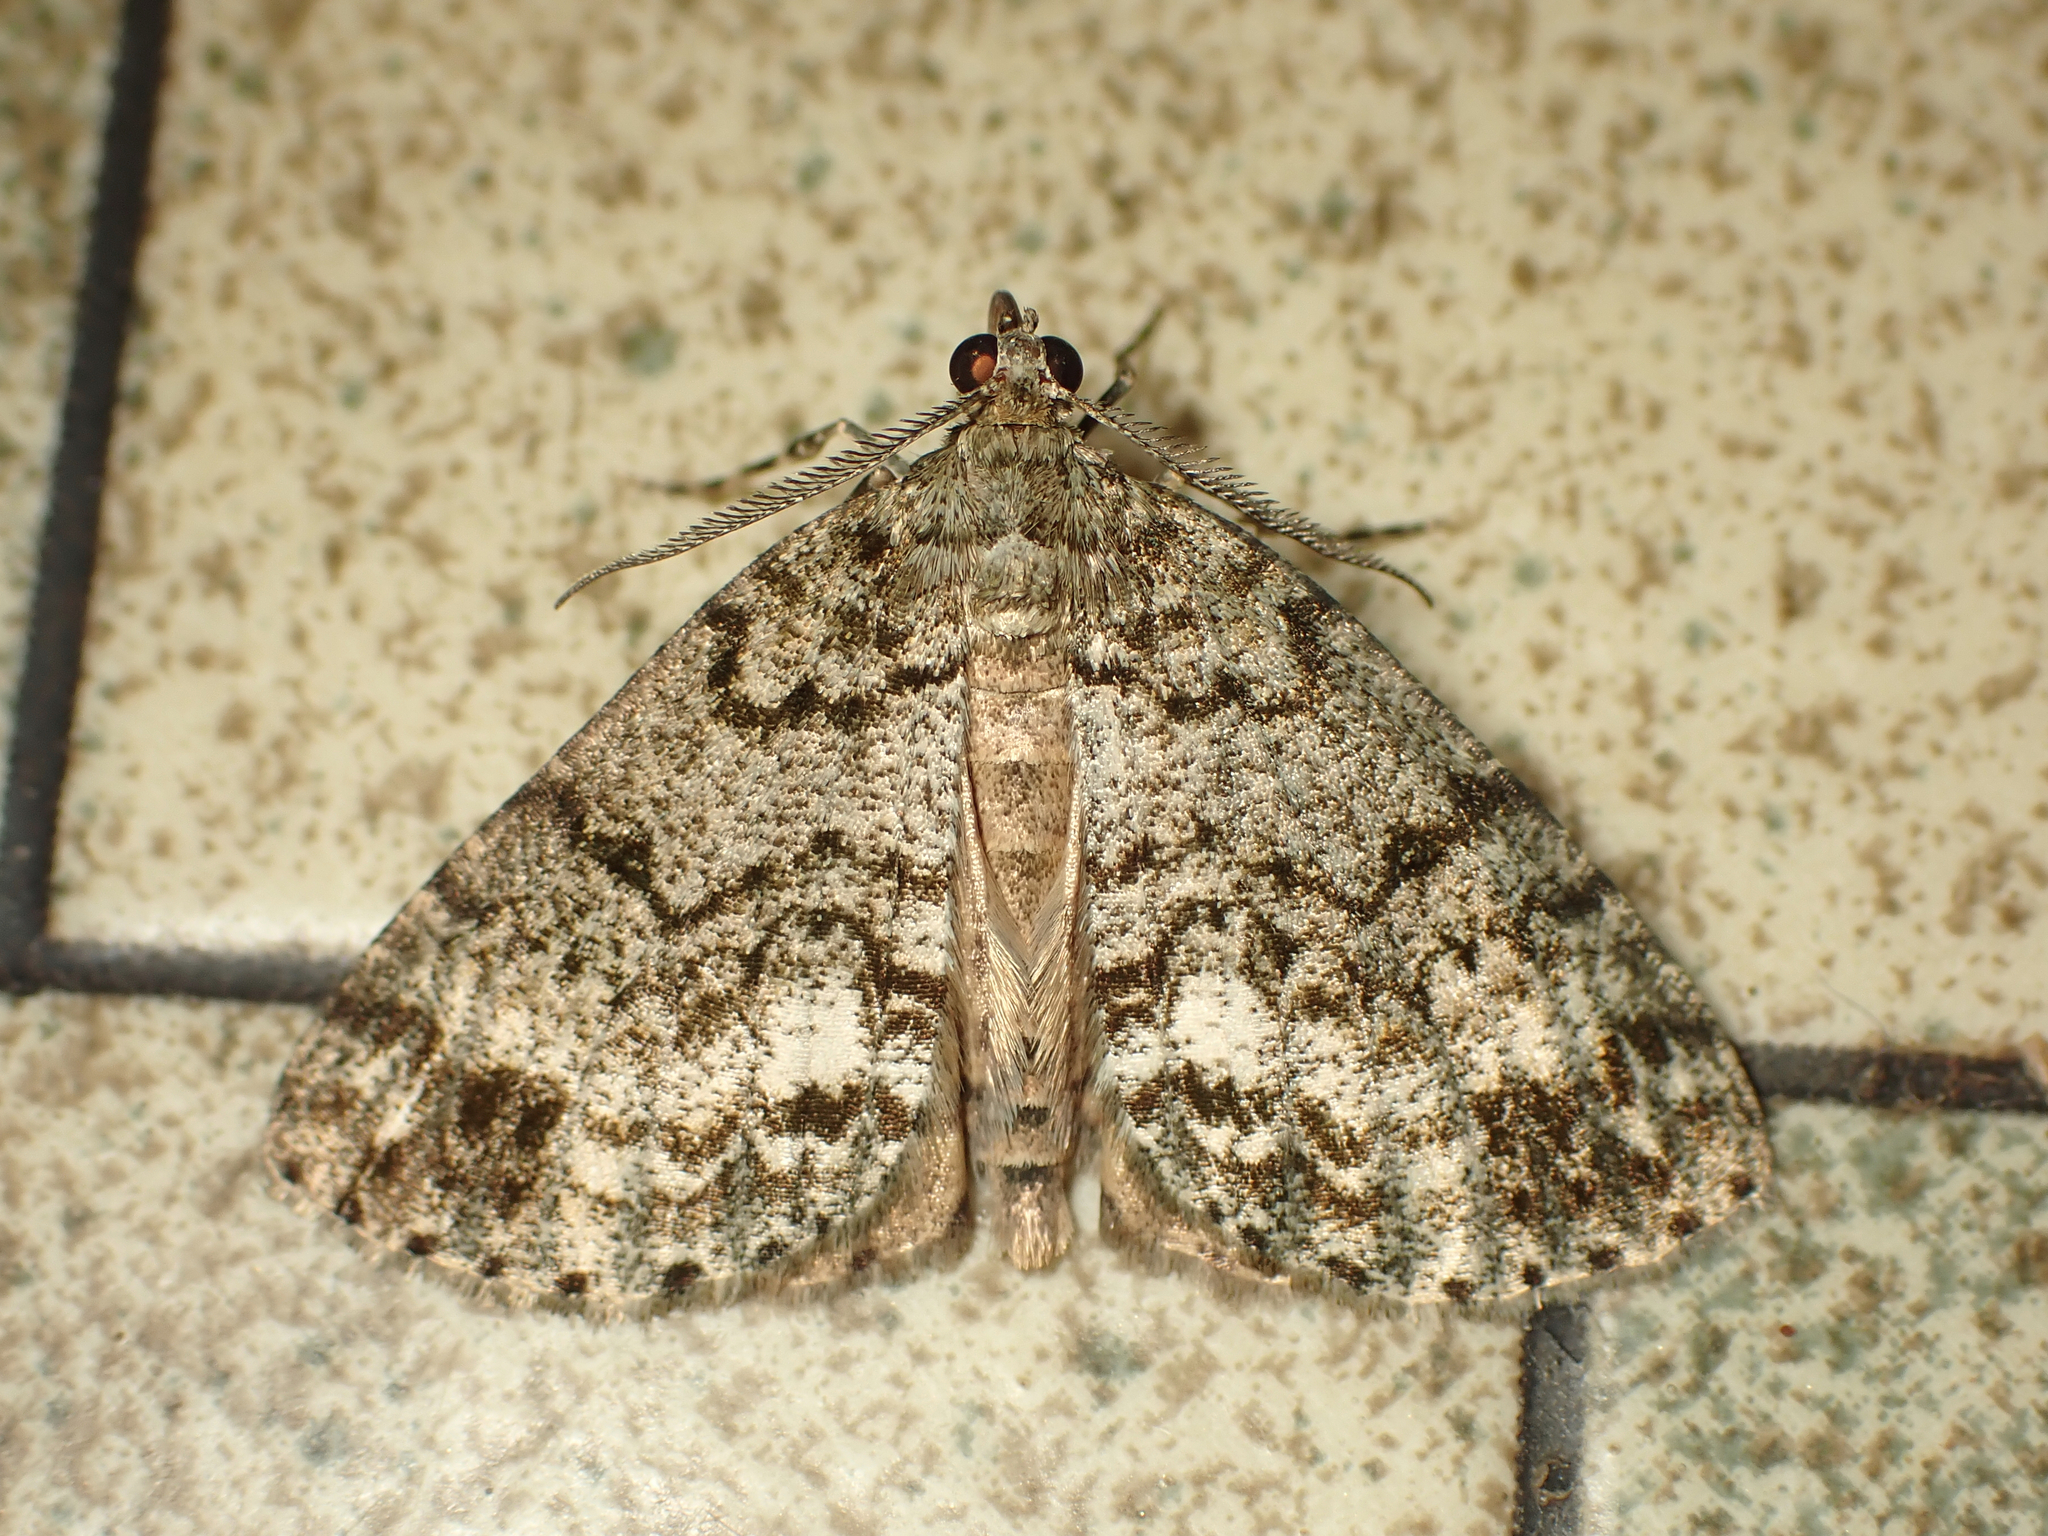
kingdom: Animalia
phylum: Arthropoda
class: Insecta
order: Lepidoptera
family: Geometridae
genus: Pseudocoremia
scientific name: Pseudocoremia indistincta
